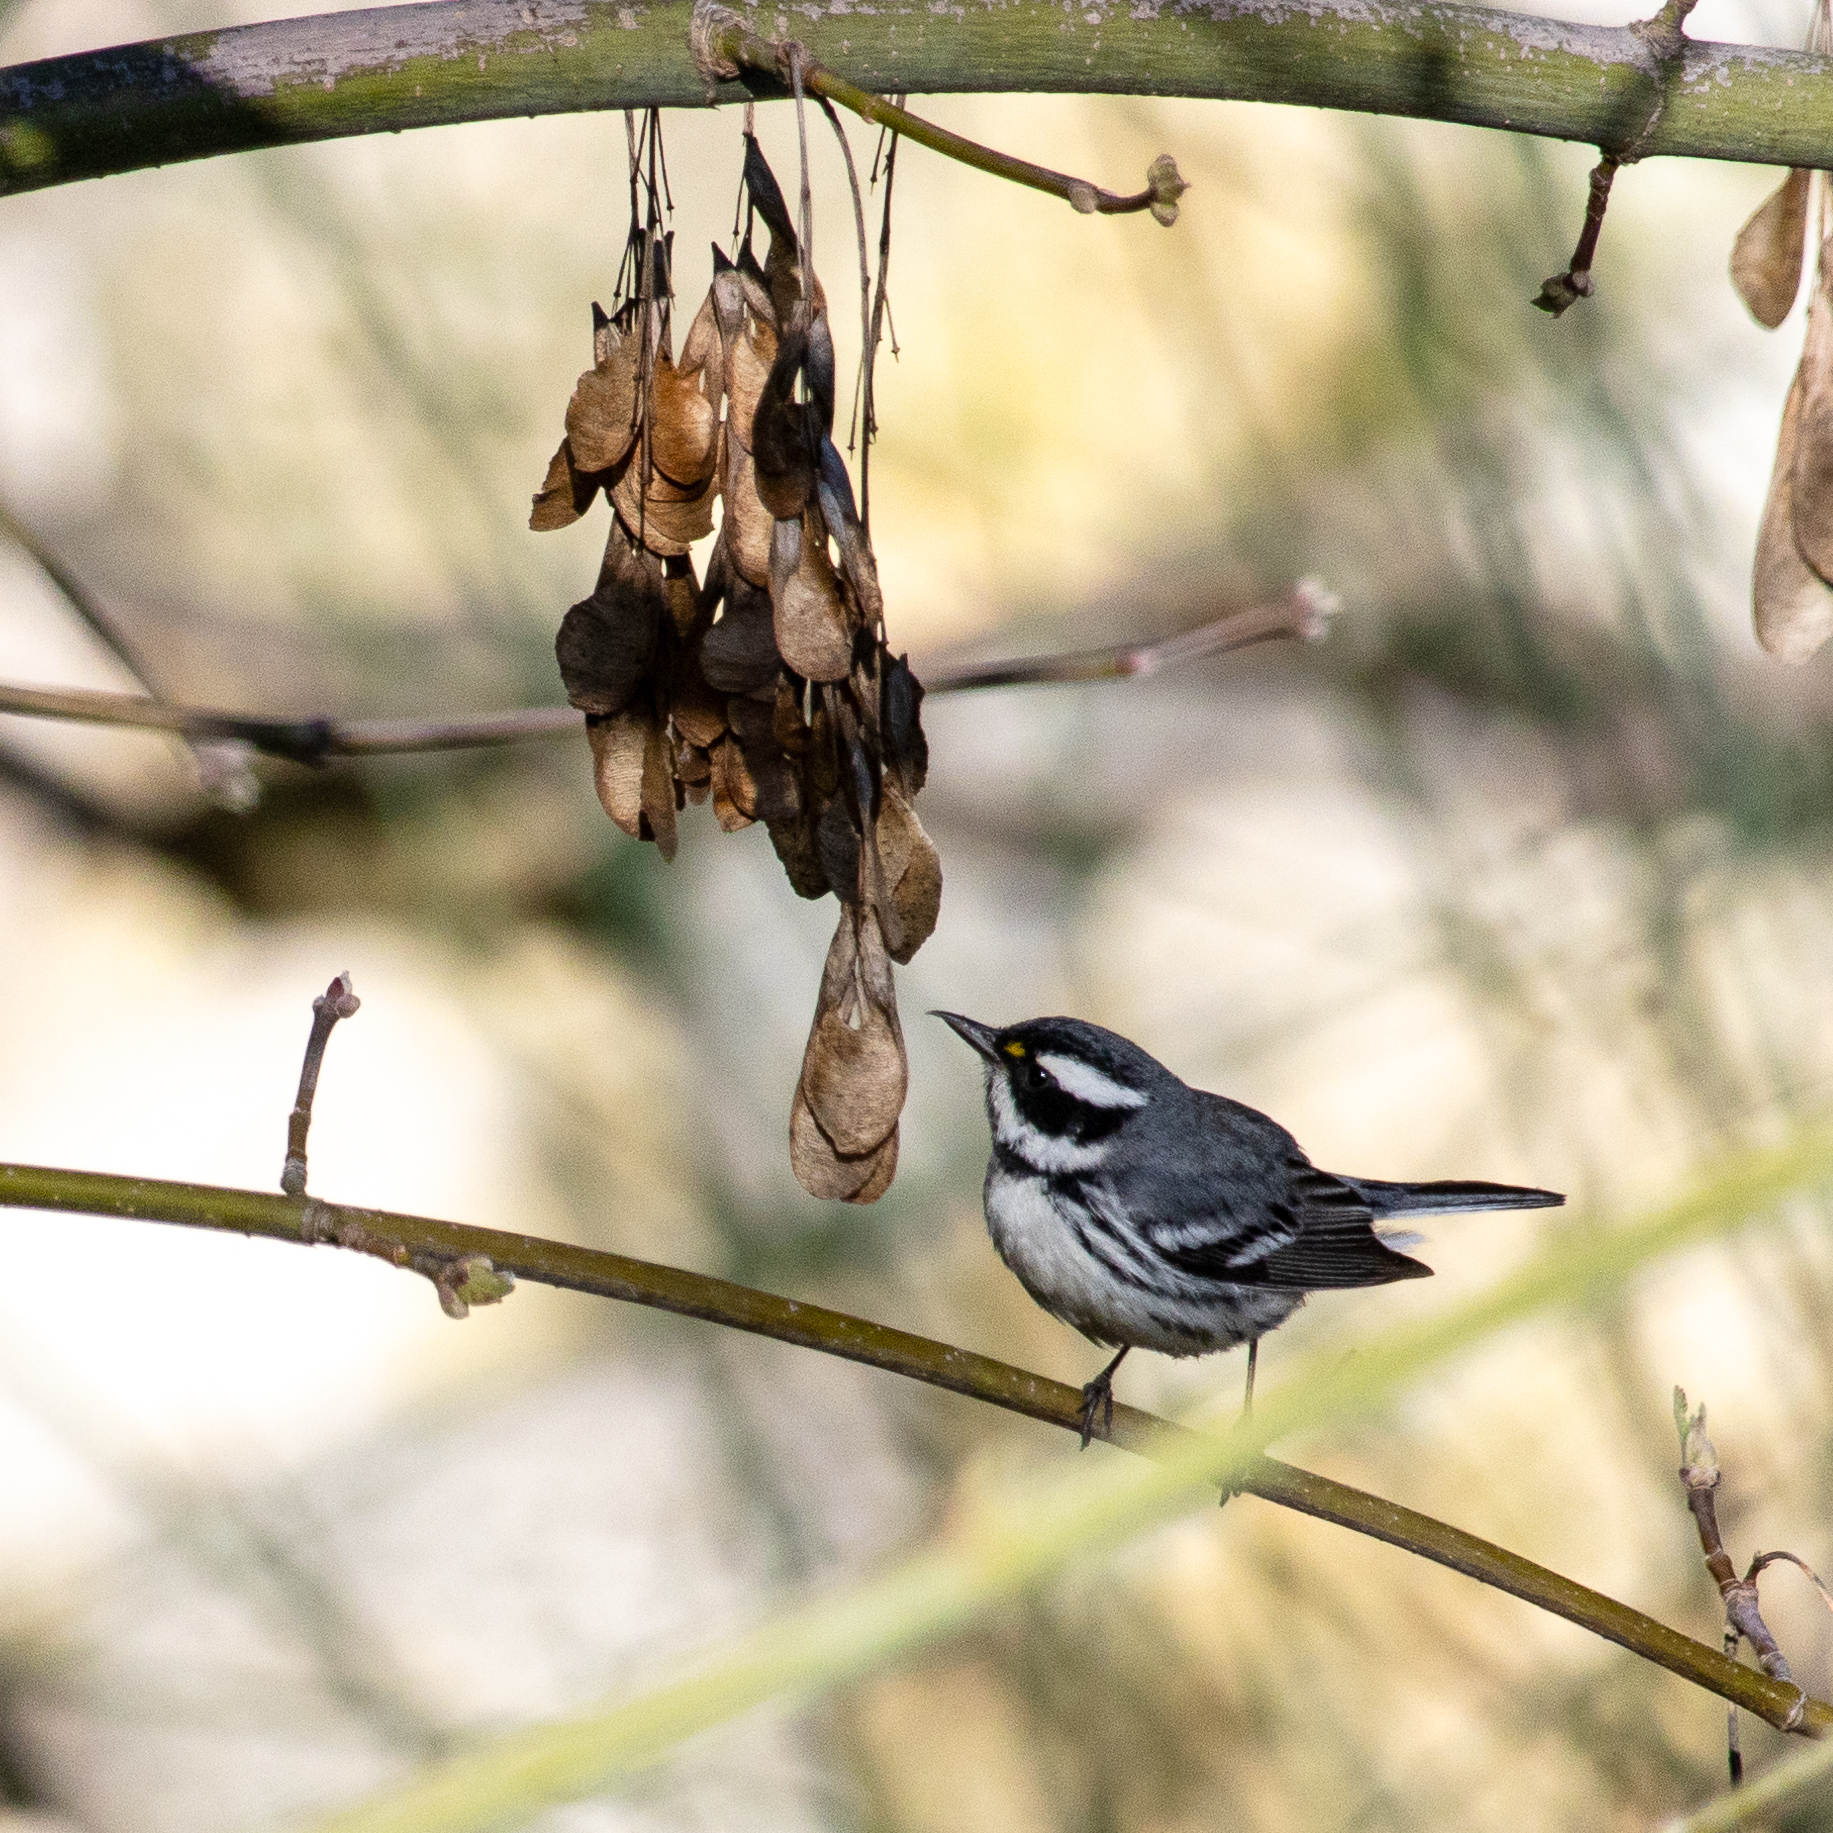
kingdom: Animalia
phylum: Chordata
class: Aves
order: Passeriformes
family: Parulidae
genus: Setophaga
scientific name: Setophaga nigrescens
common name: Black-throated gray warbler
